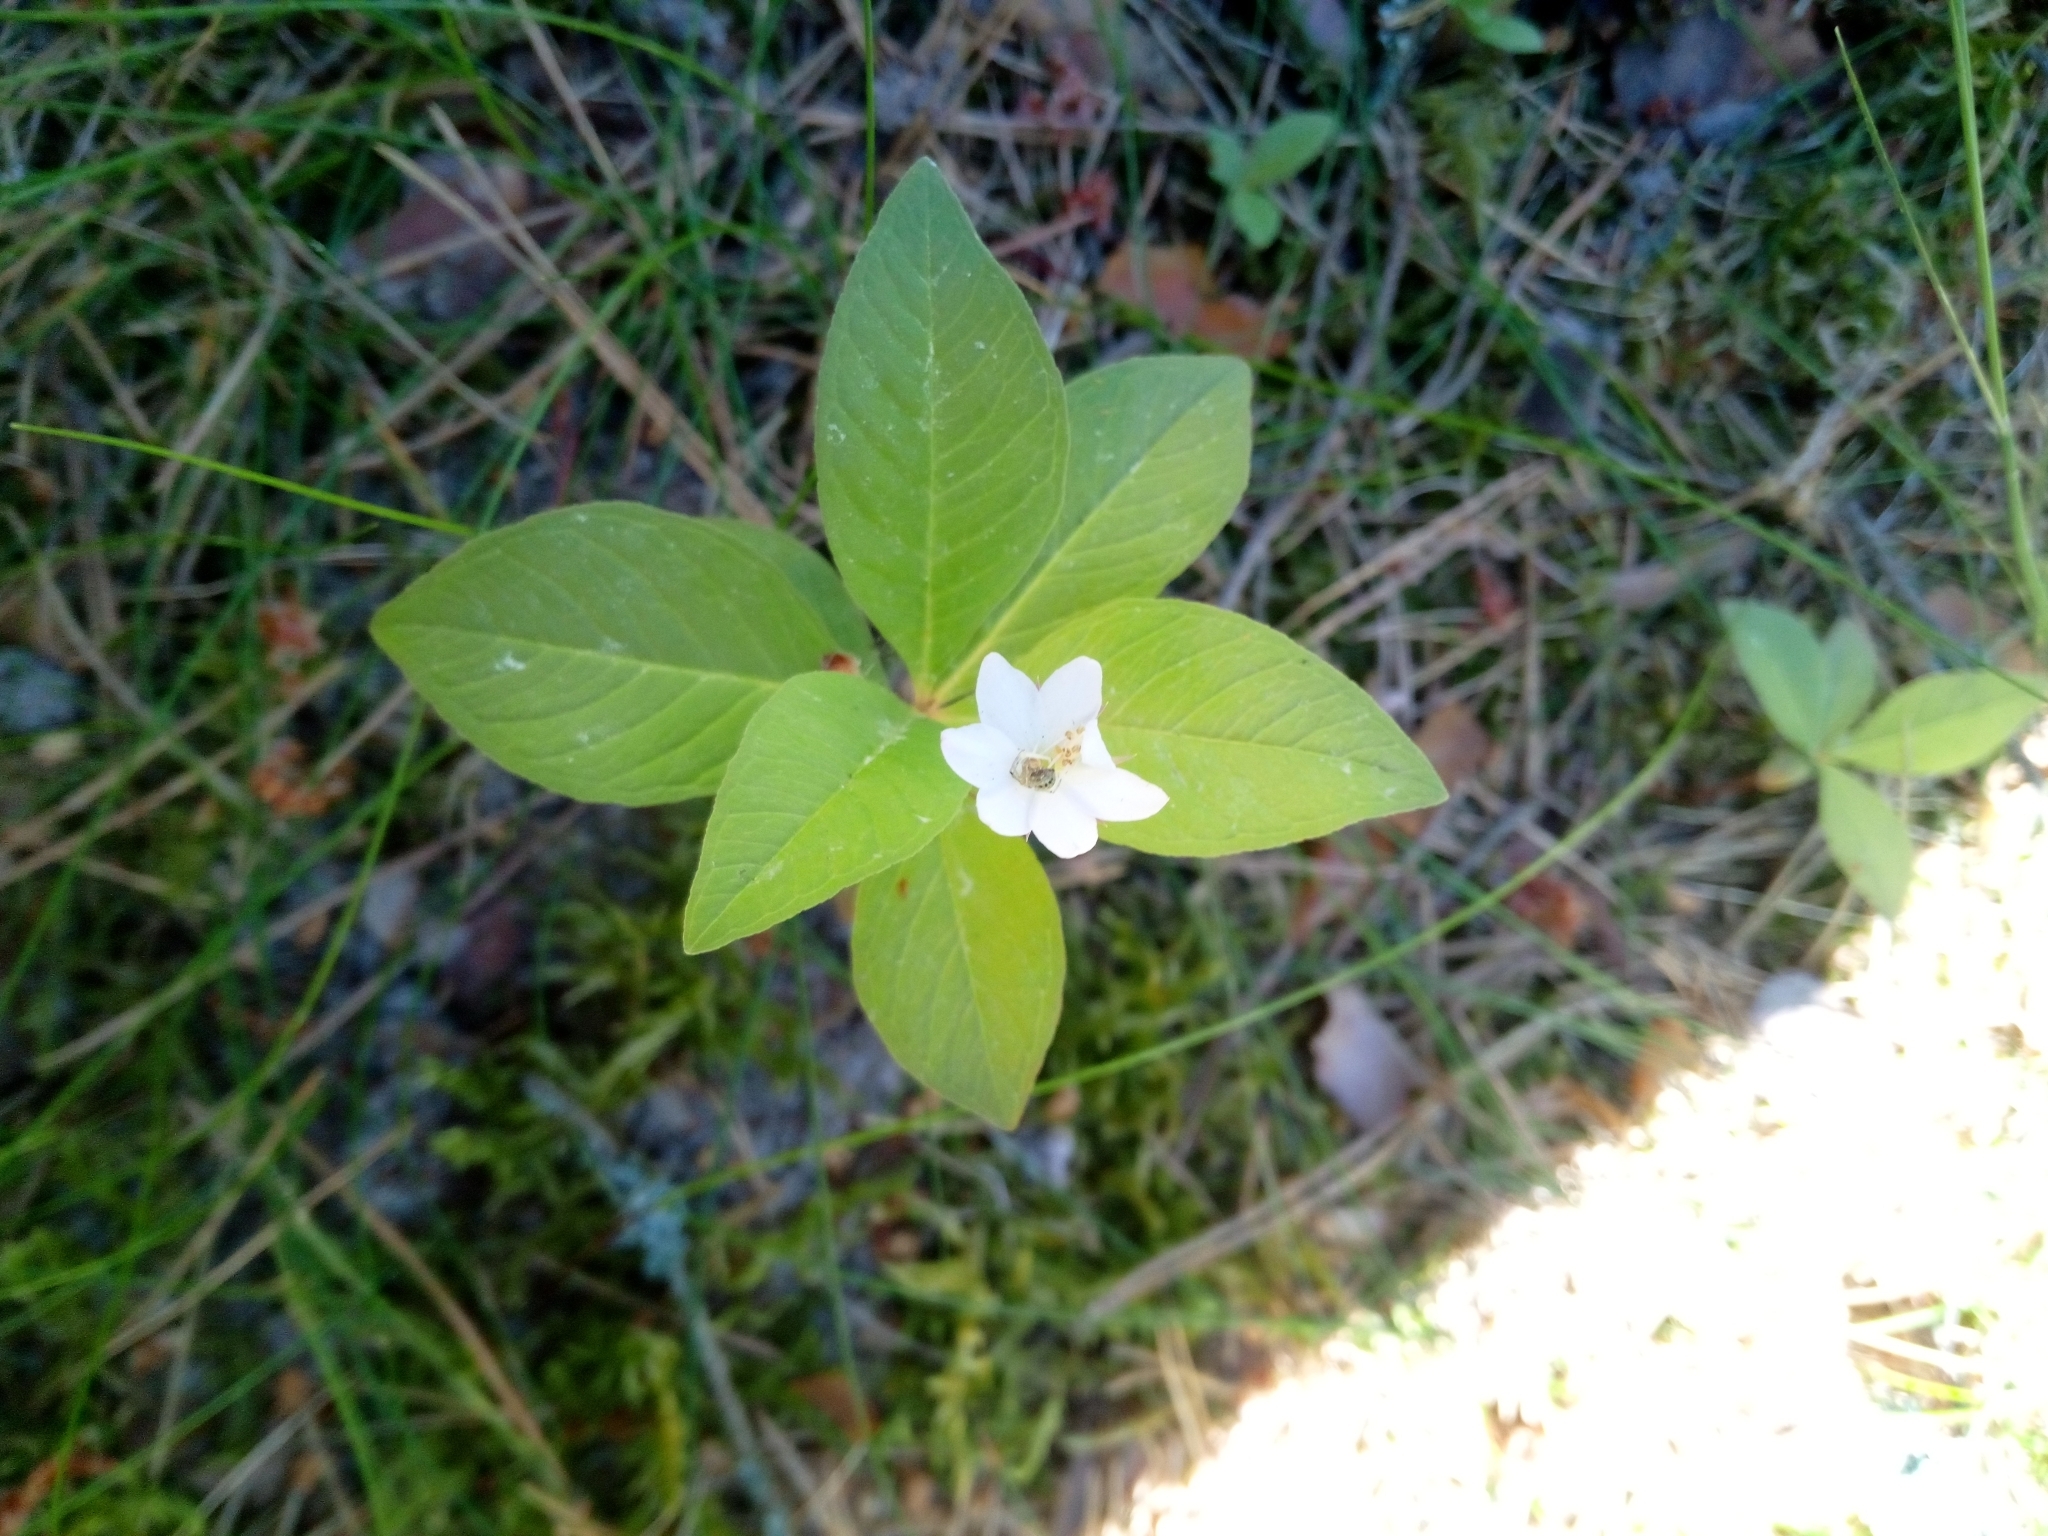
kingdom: Plantae
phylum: Tracheophyta
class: Magnoliopsida
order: Ericales
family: Primulaceae
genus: Lysimachia
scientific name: Lysimachia europaea
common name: Arctic starflower
